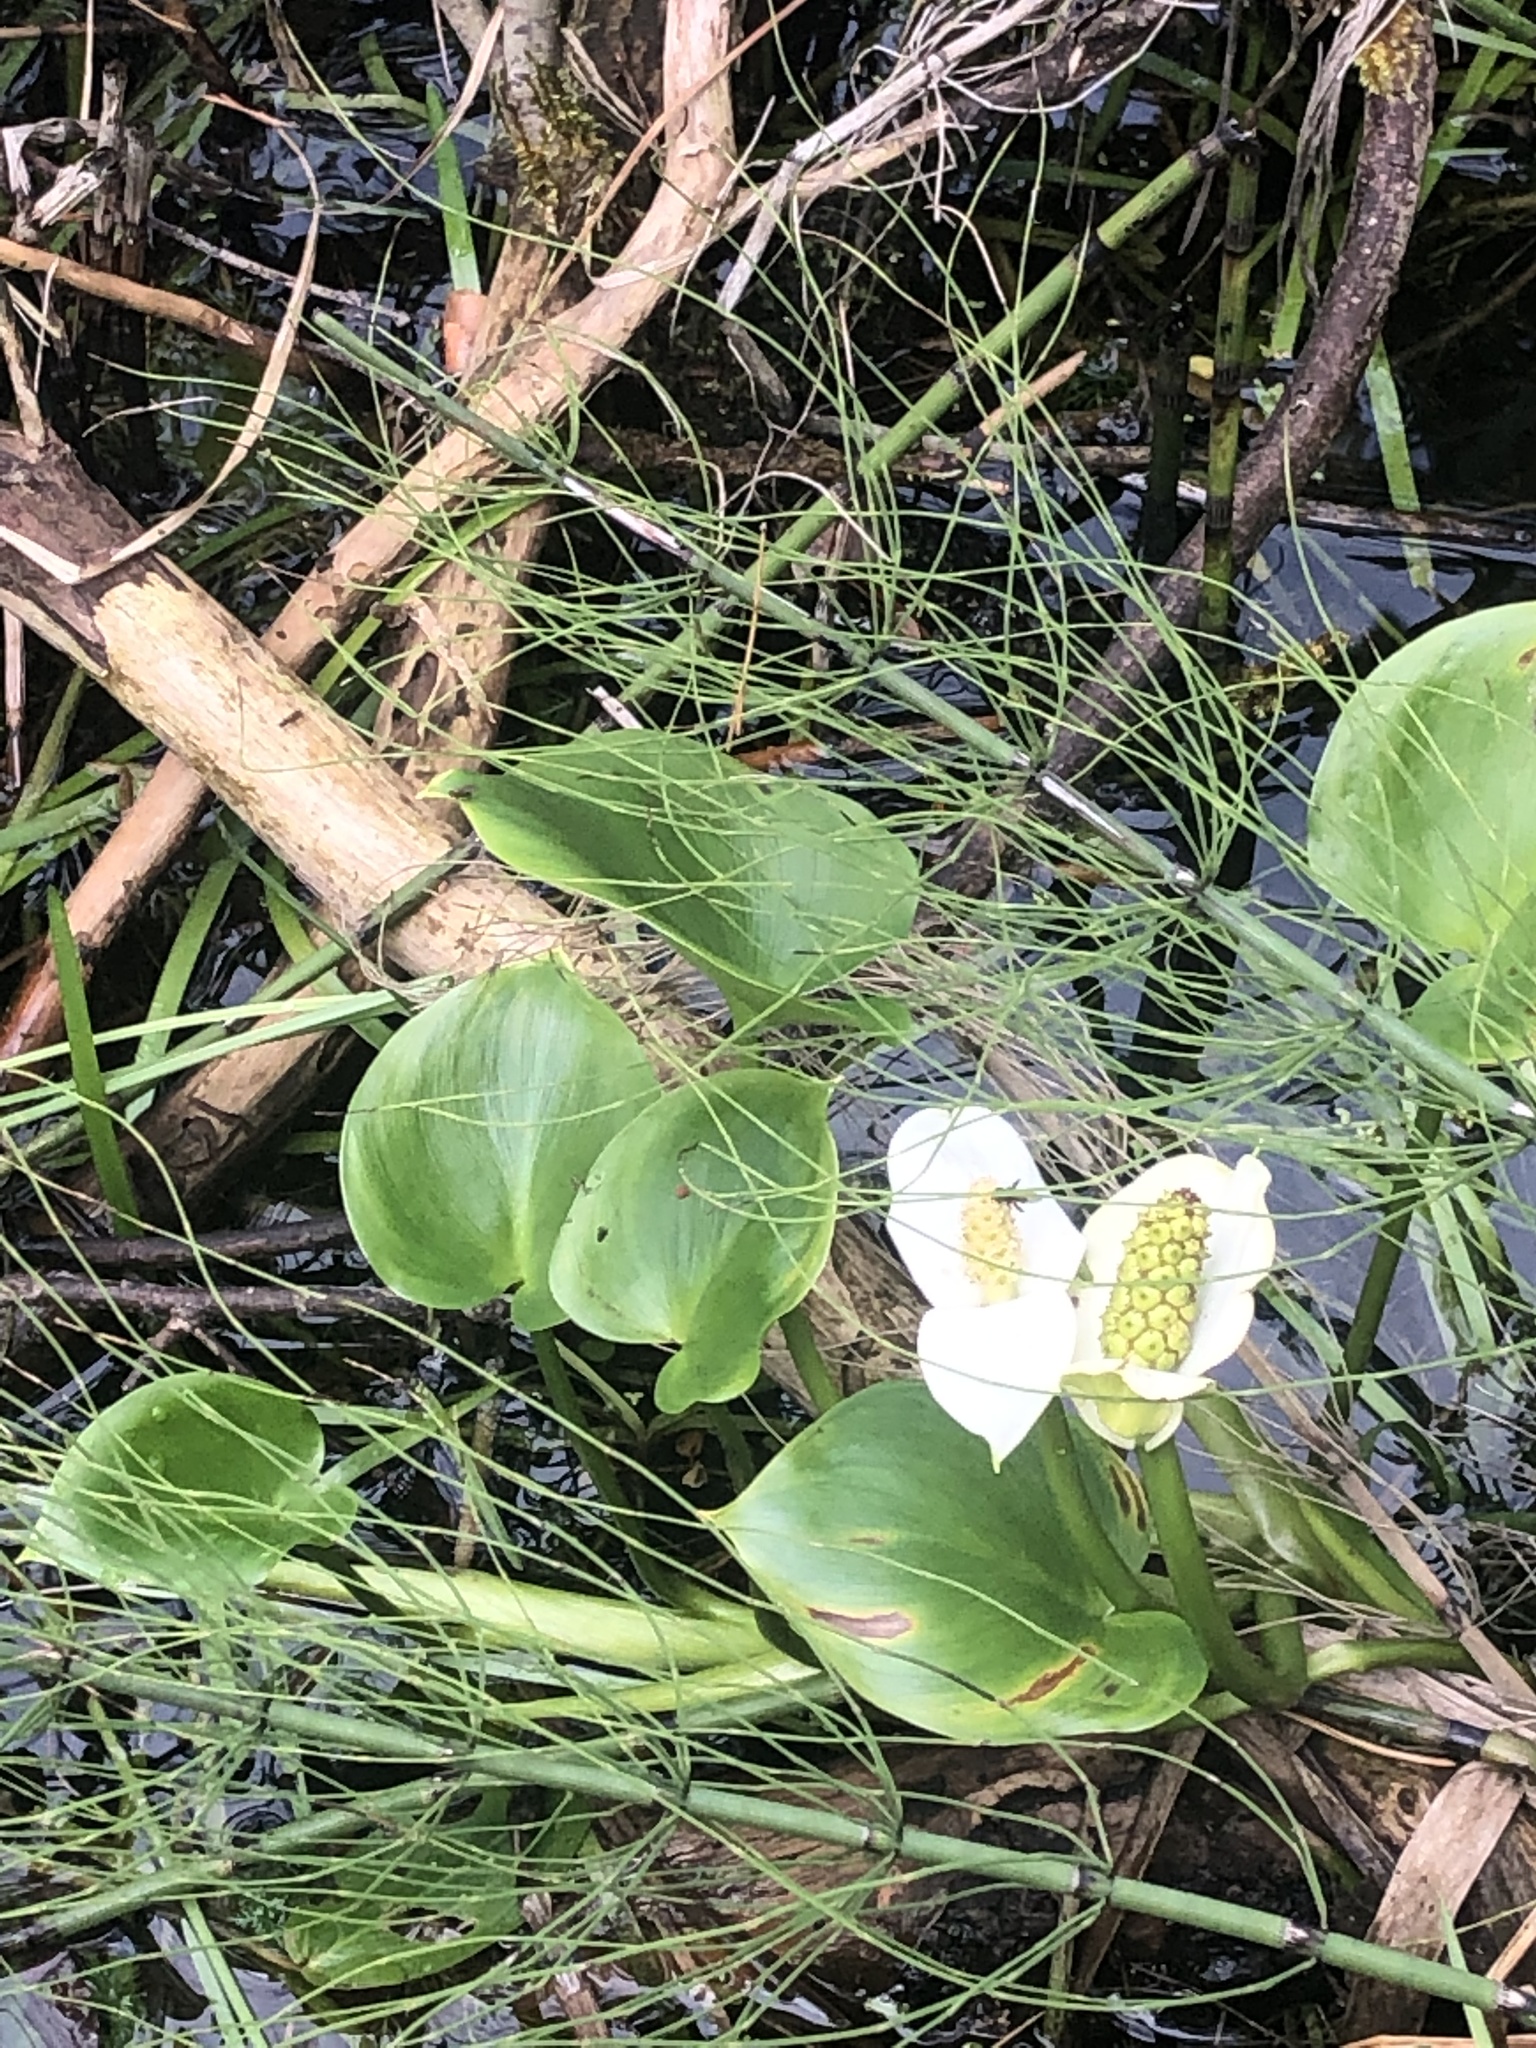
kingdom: Plantae
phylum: Tracheophyta
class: Liliopsida
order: Alismatales
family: Araceae
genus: Calla
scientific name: Calla palustris
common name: Bog arum
